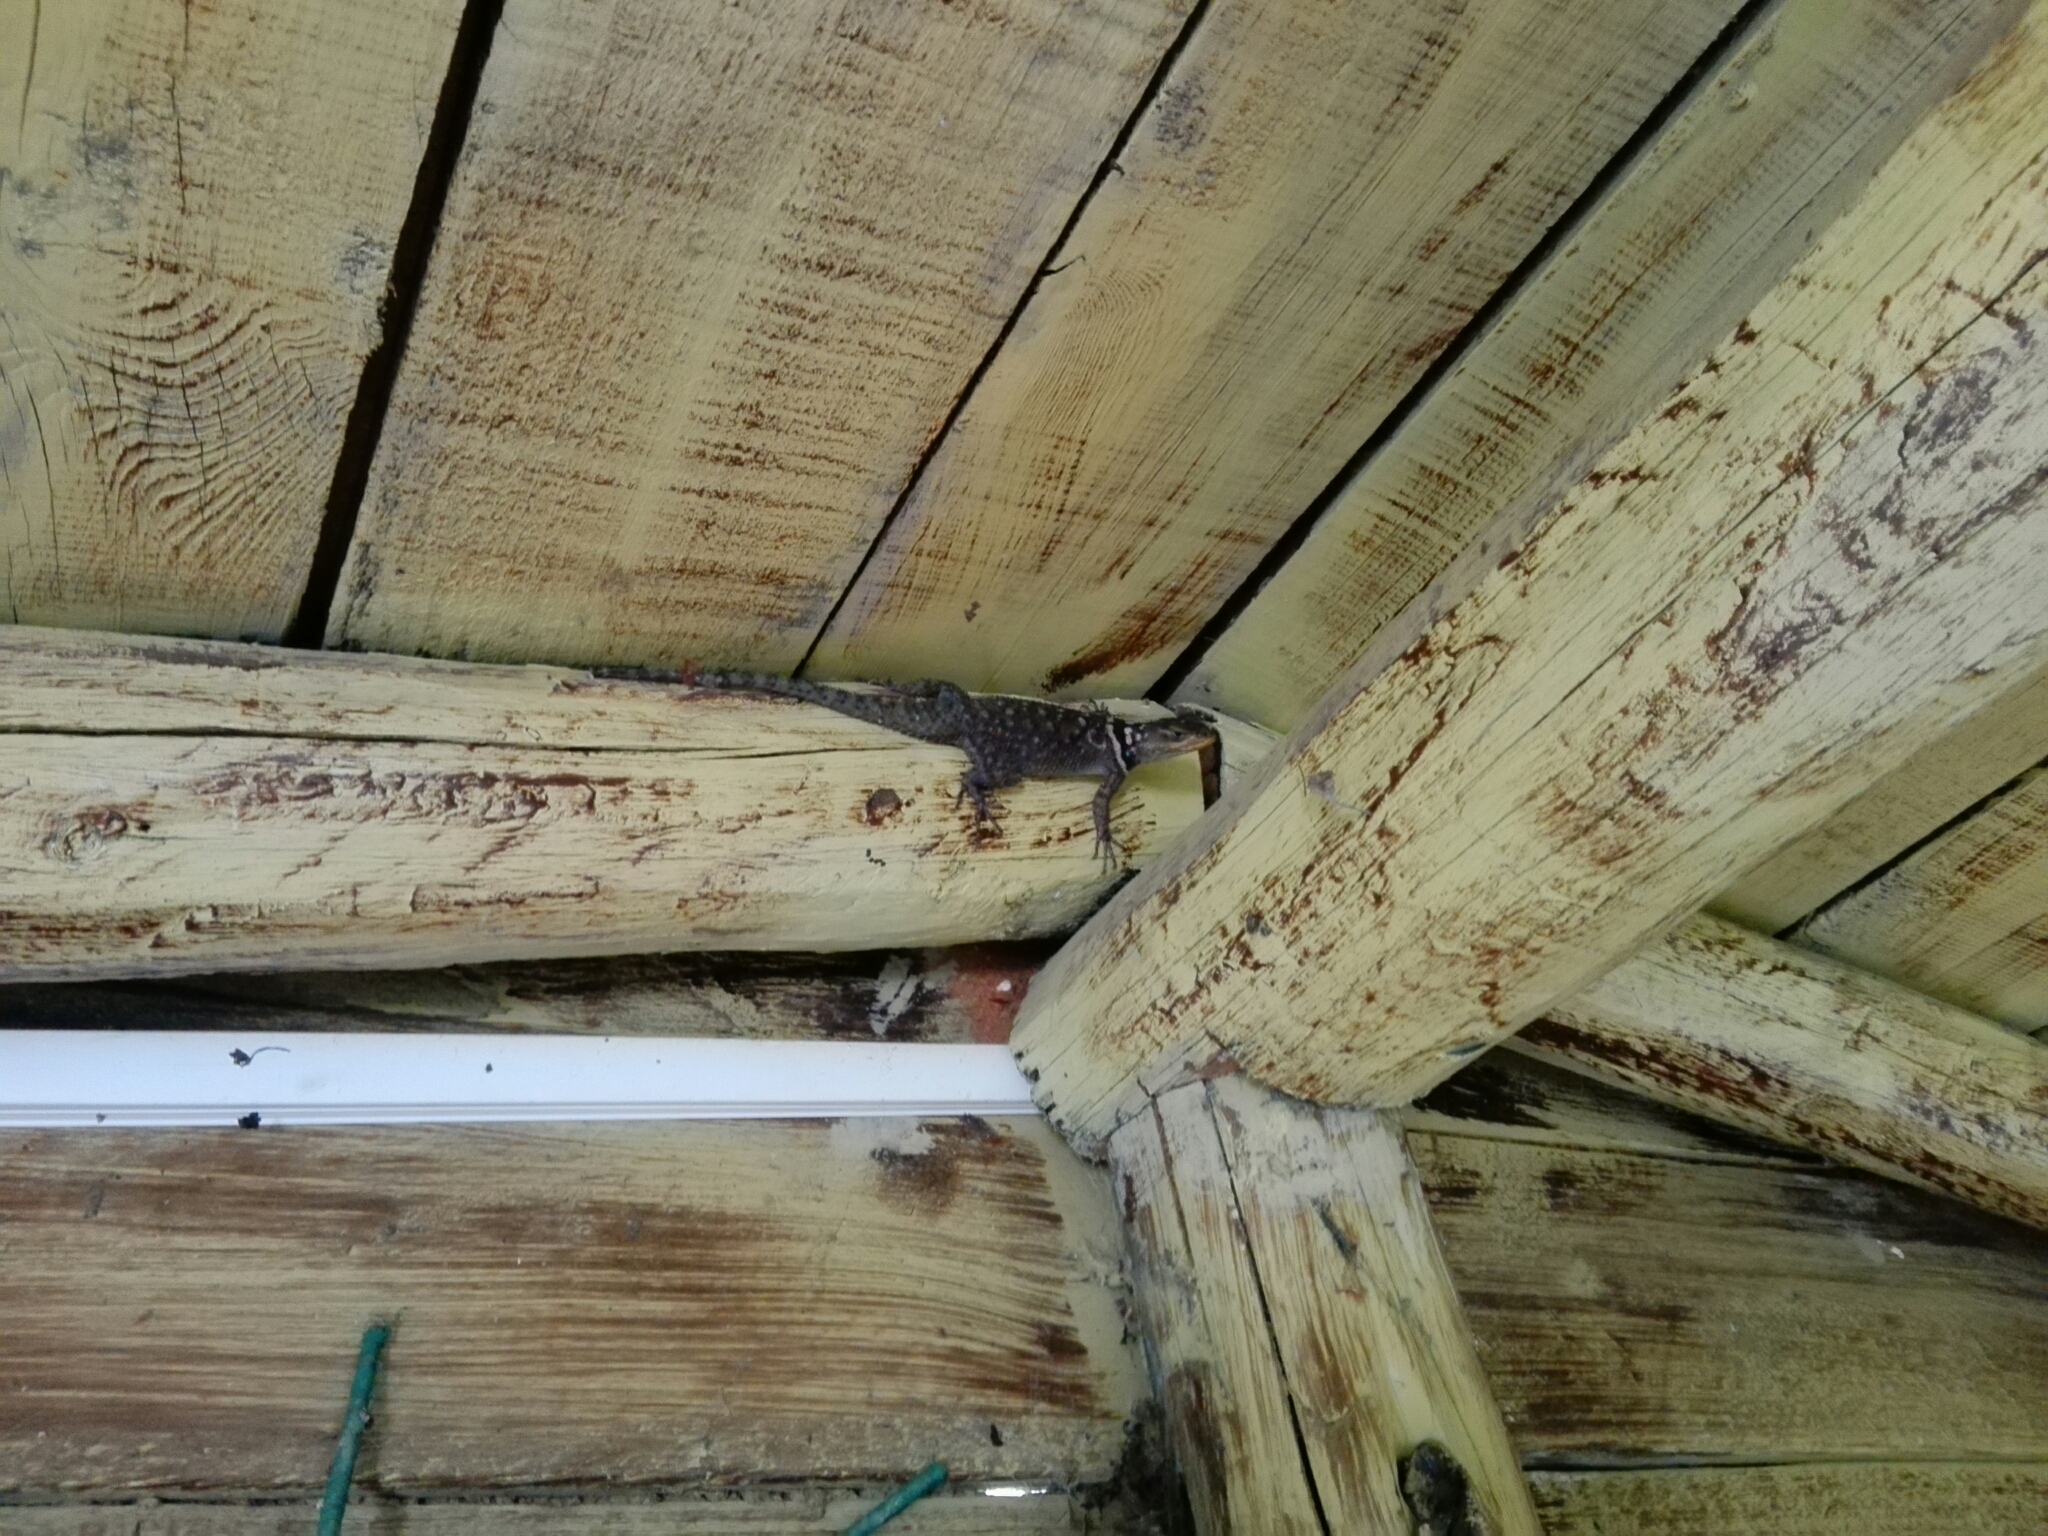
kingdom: Animalia
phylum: Chordata
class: Squamata
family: Phrynosomatidae
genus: Sceloporus
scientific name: Sceloporus cyanogenys
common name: Blue spiny lizard
